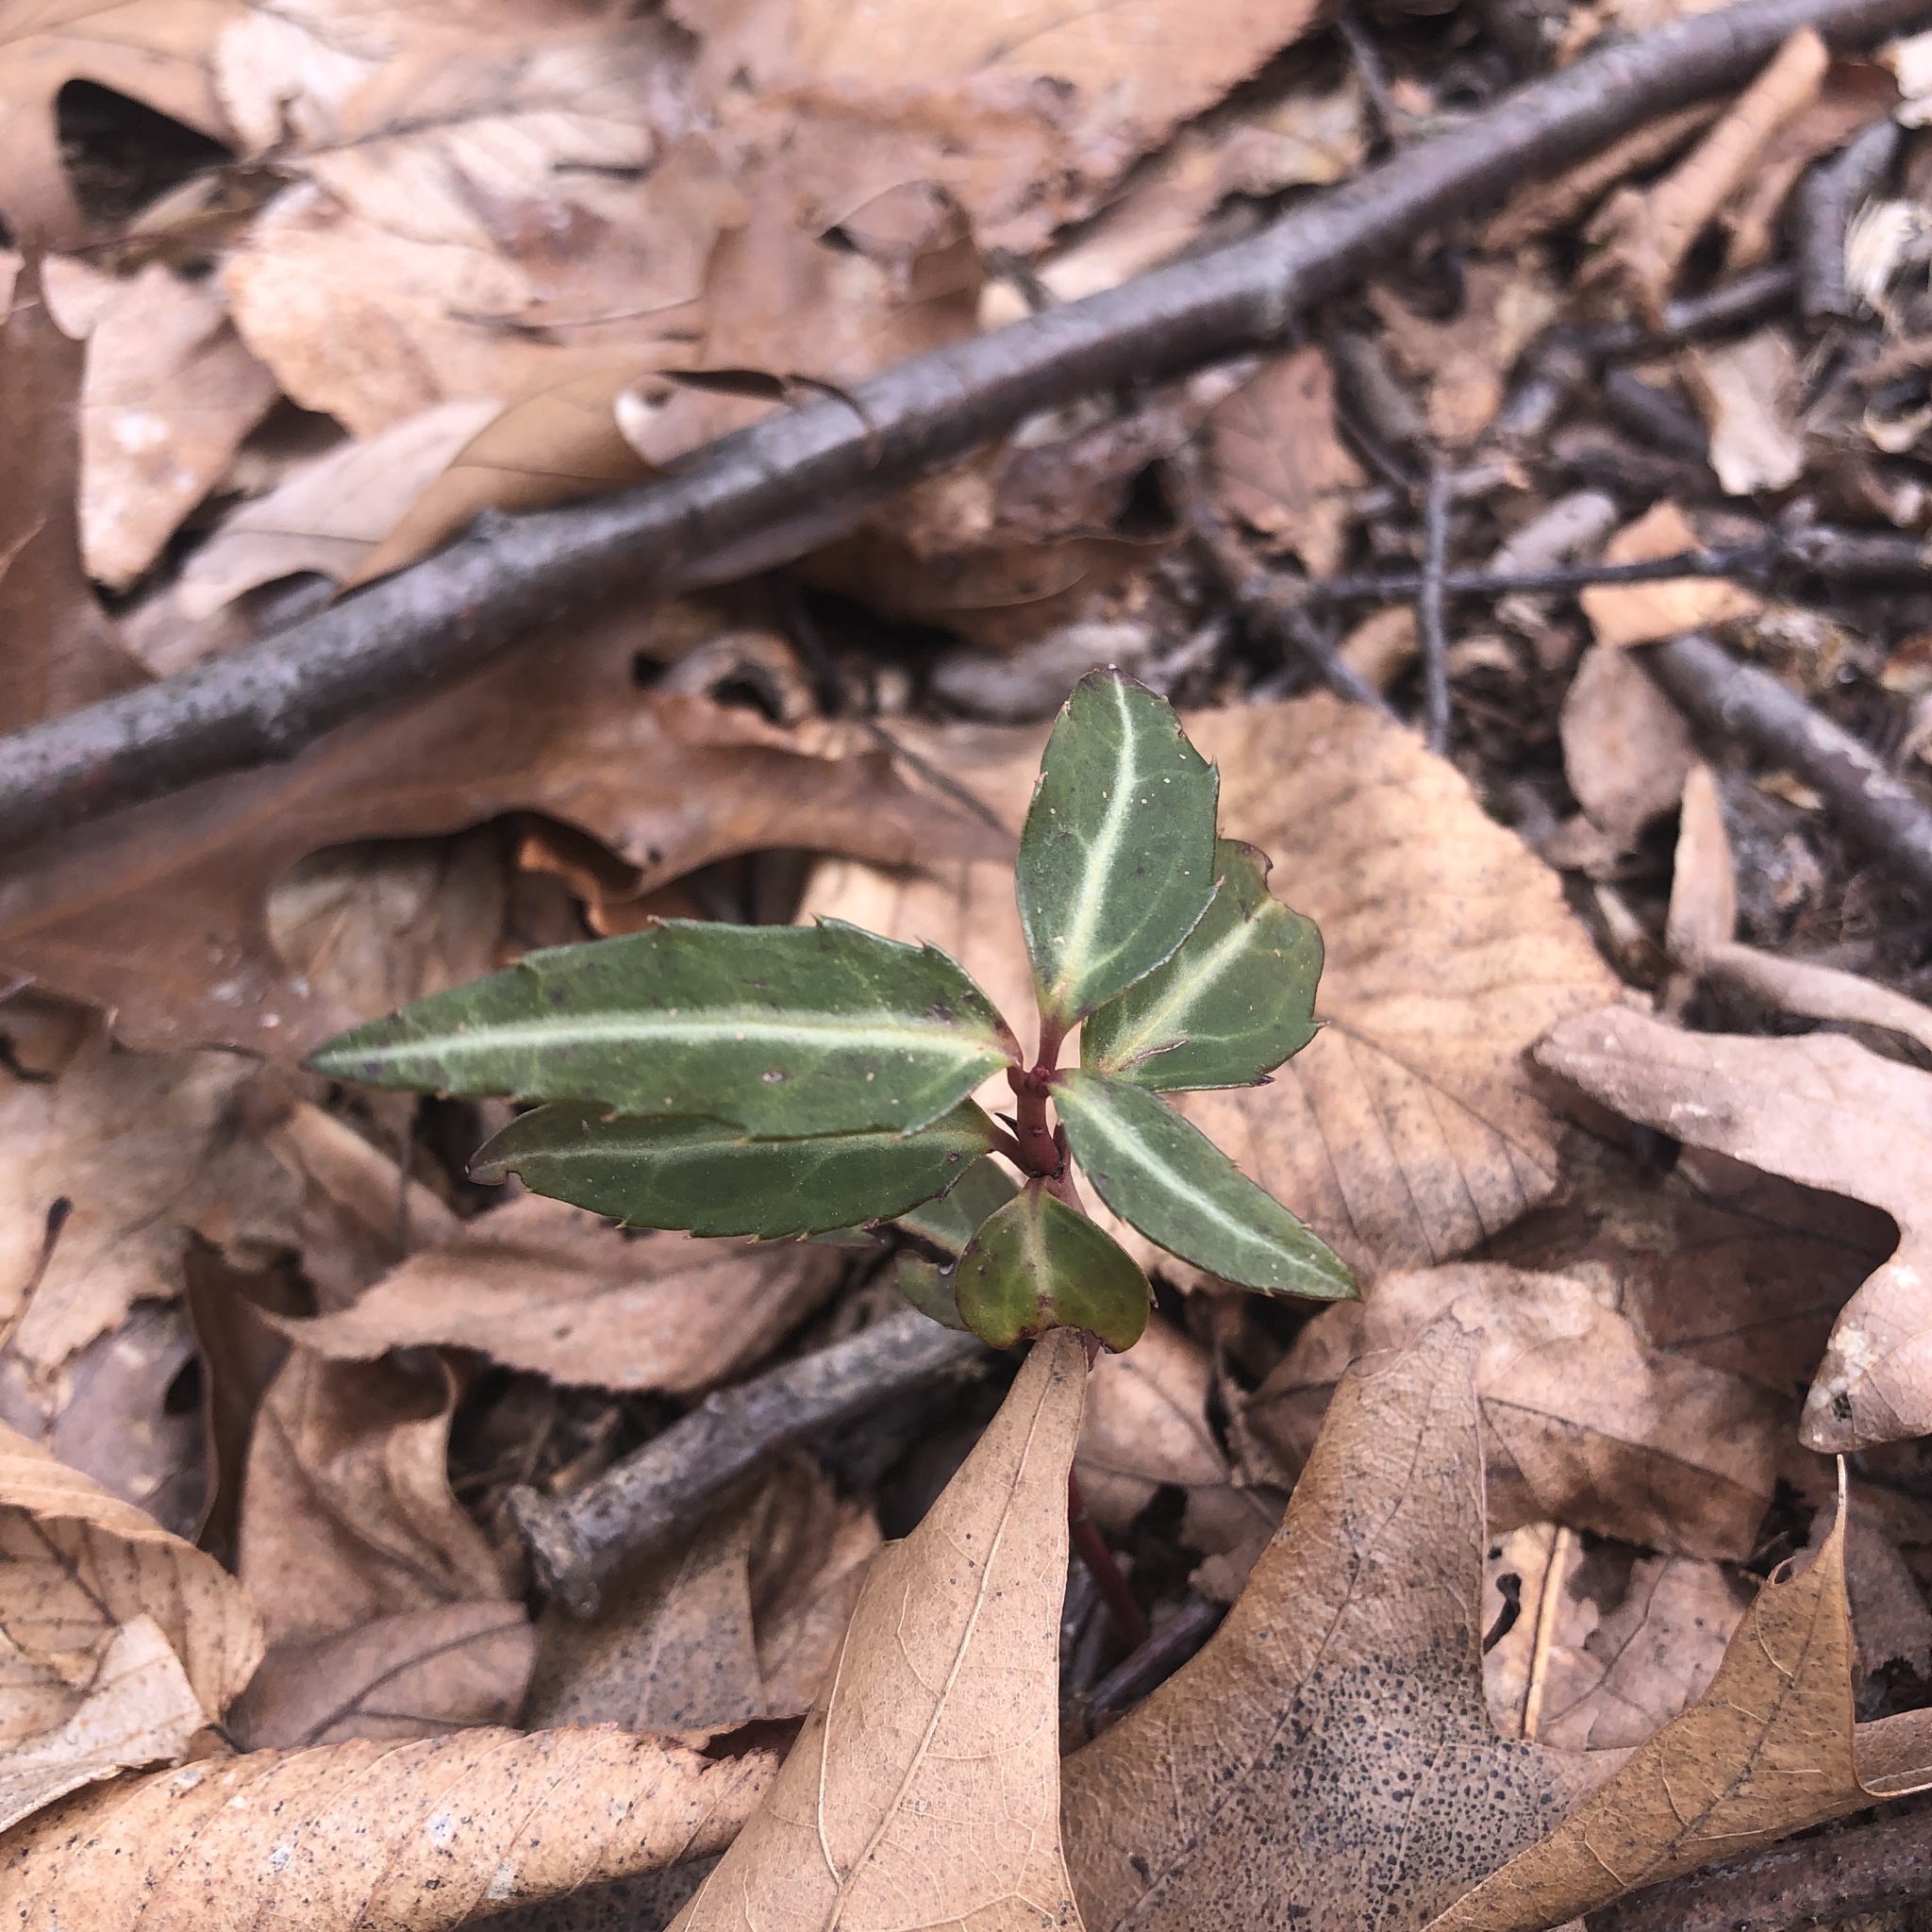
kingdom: Plantae
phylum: Tracheophyta
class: Magnoliopsida
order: Ericales
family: Ericaceae
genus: Chimaphila
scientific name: Chimaphila maculata
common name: Spotted pipsissewa
